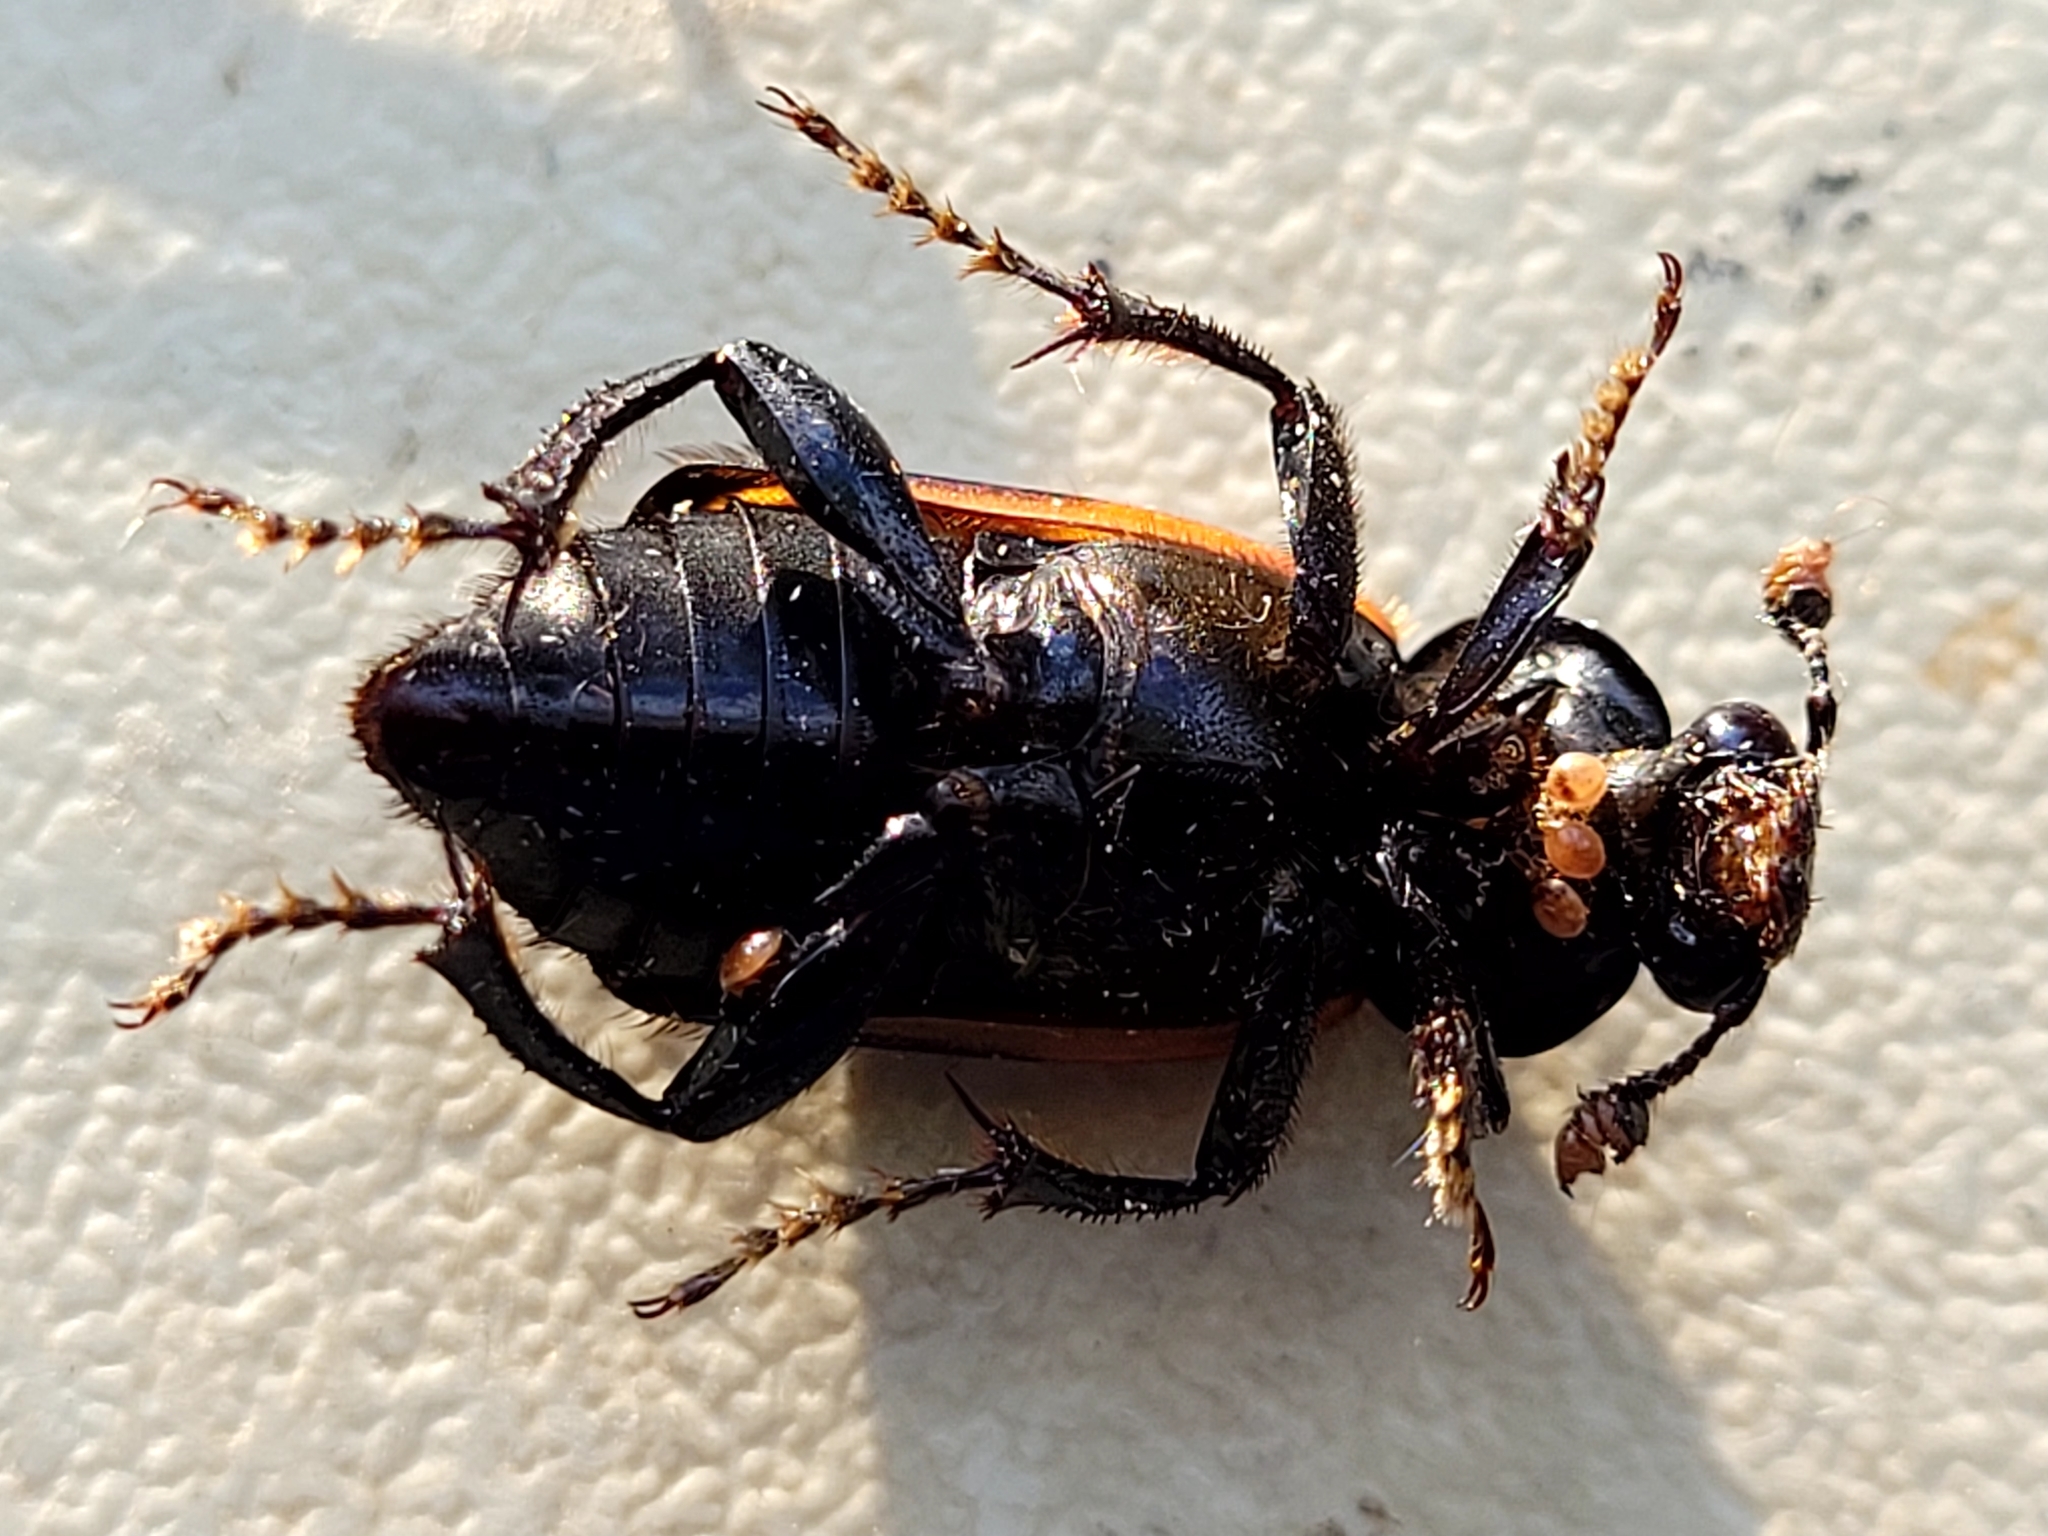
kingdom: Animalia
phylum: Arthropoda
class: Insecta
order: Coleoptera
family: Staphylinidae
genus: Nicrophorus
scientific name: Nicrophorus sayi
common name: Say's burying beetle
